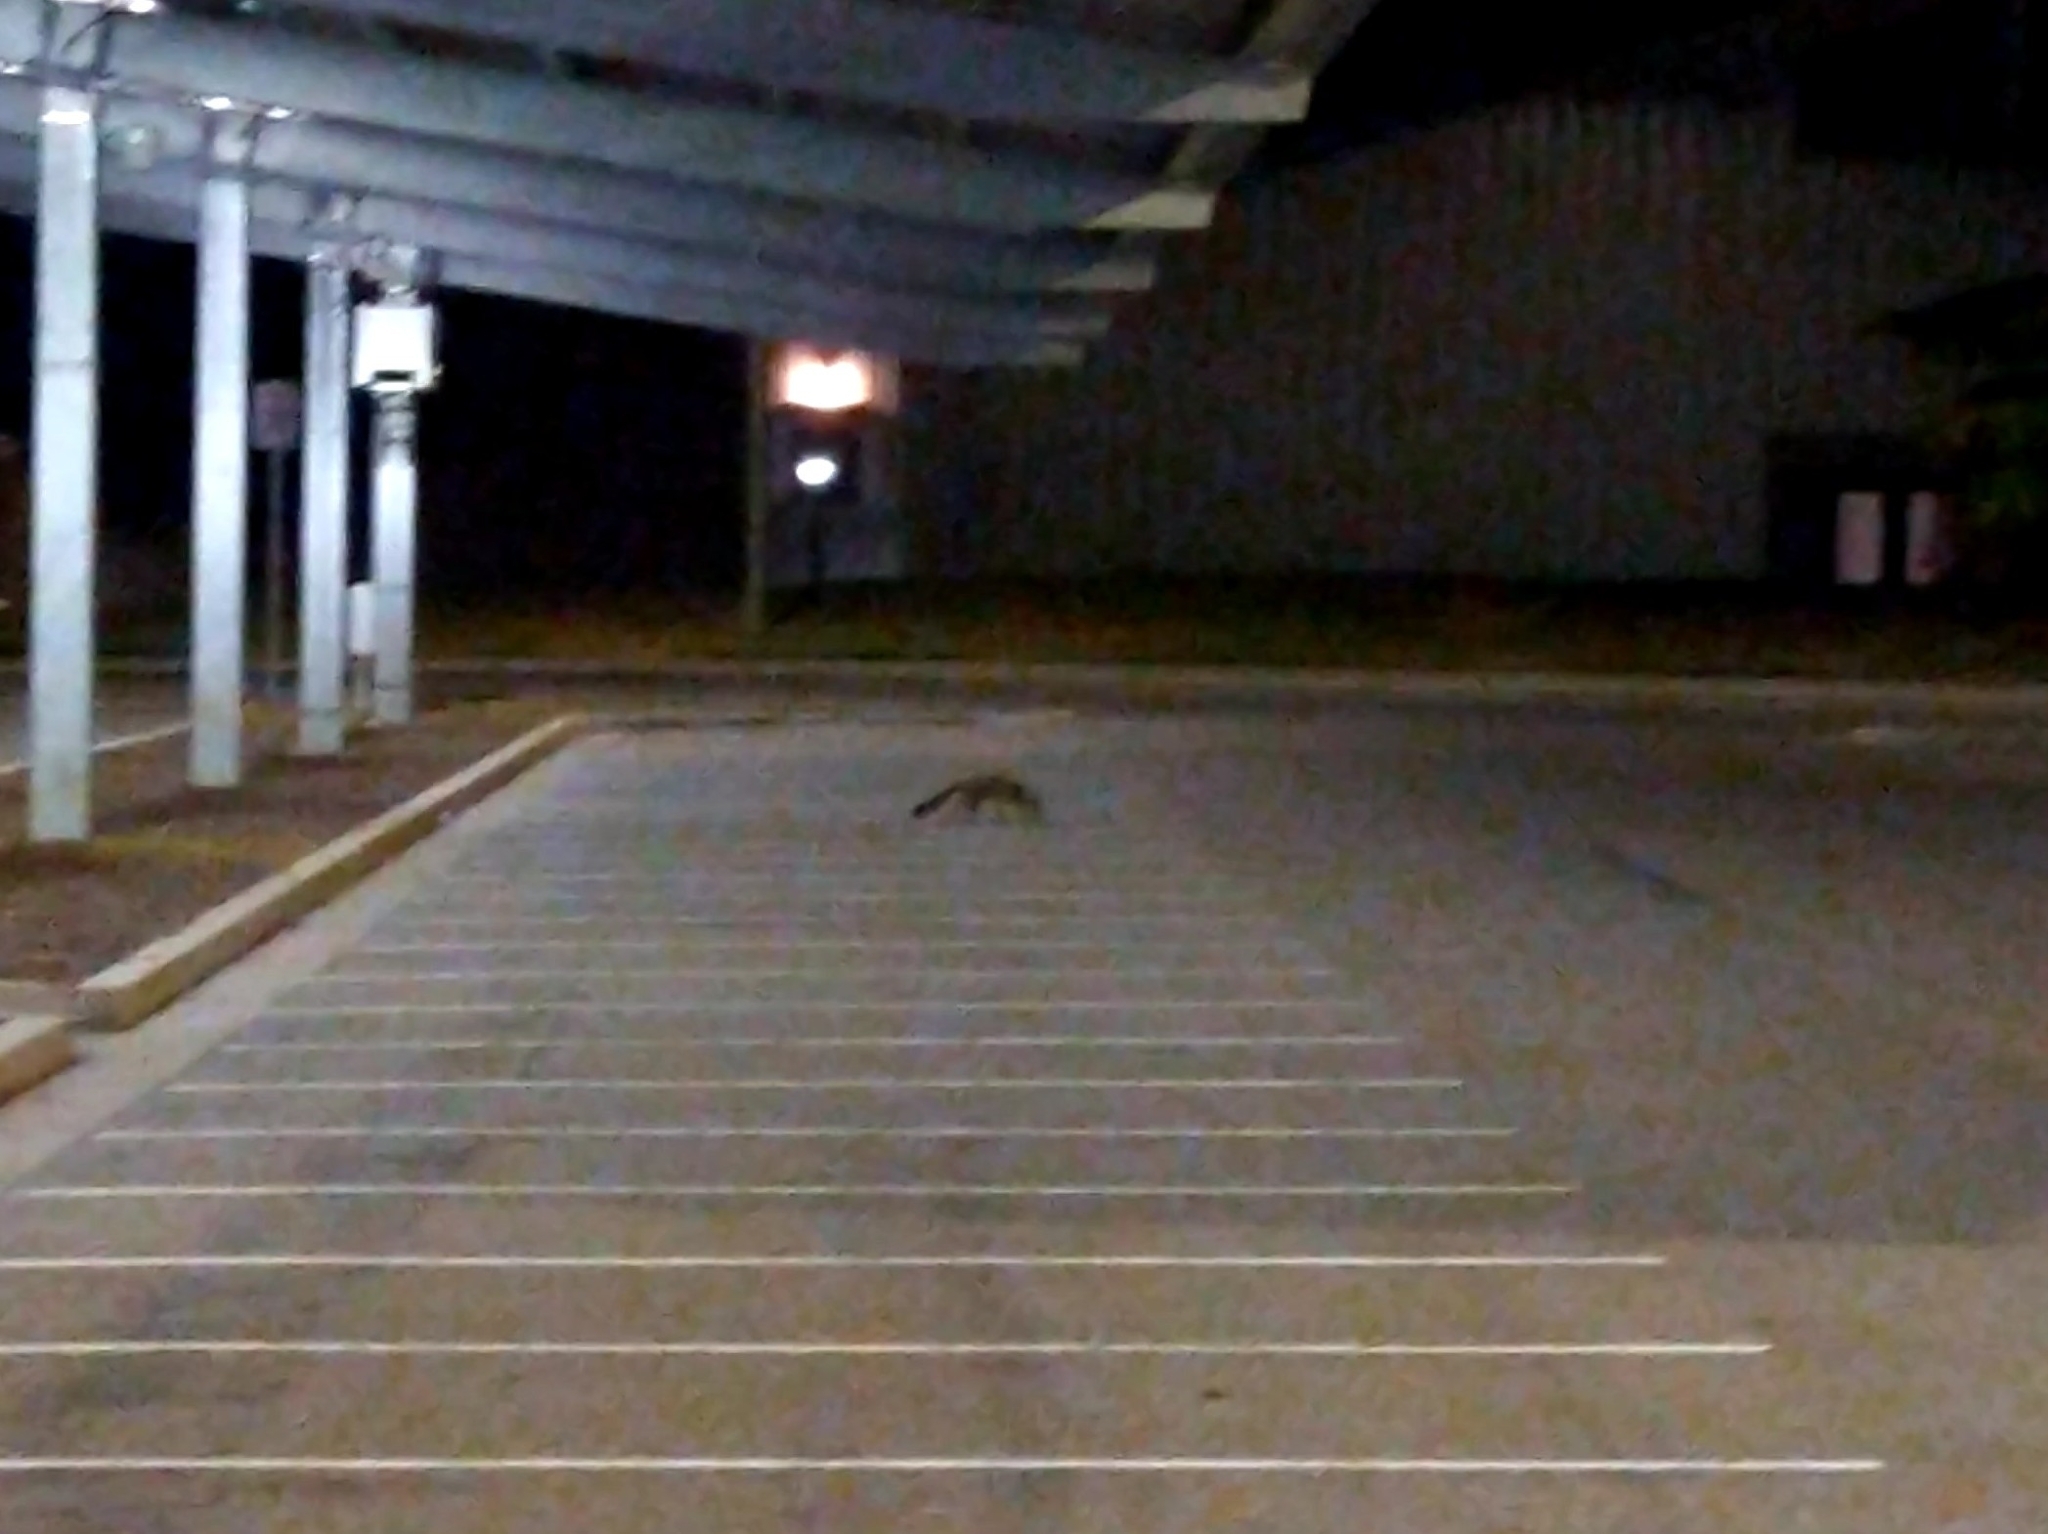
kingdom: Animalia
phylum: Chordata
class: Mammalia
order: Carnivora
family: Canidae
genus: Urocyon
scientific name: Urocyon cinereoargenteus
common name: Gray fox
